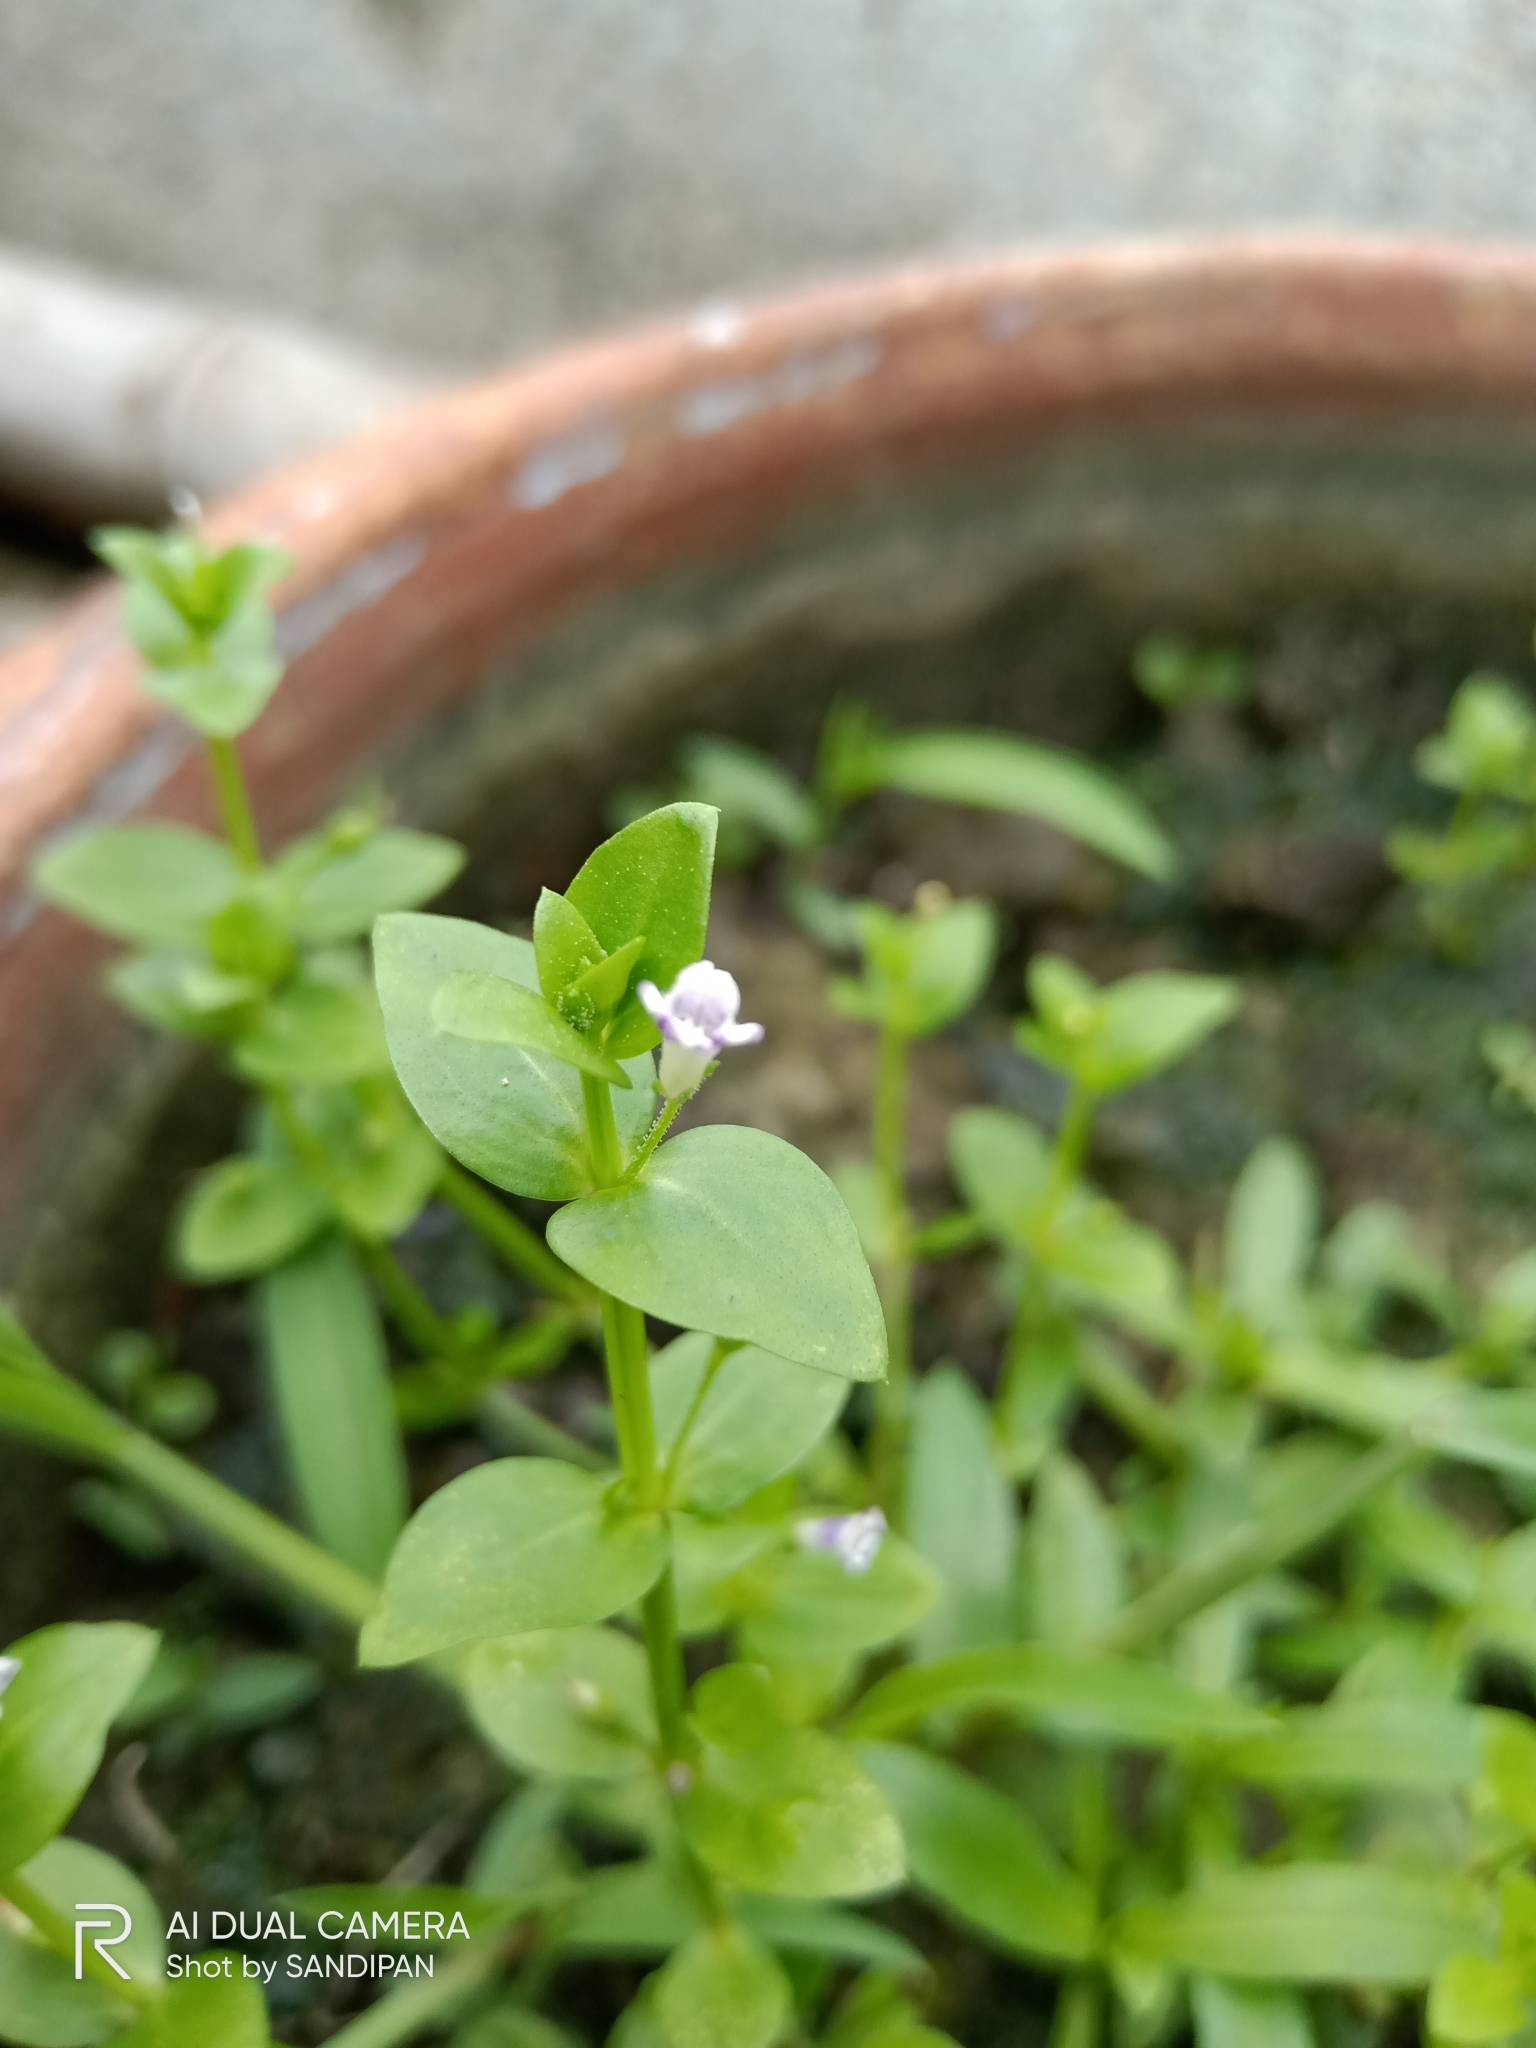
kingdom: Plantae
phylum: Tracheophyta
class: Magnoliopsida
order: Lamiales
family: Linderniaceae
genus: Lindernia
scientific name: Lindernia dubia
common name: Annual false pimpernel
